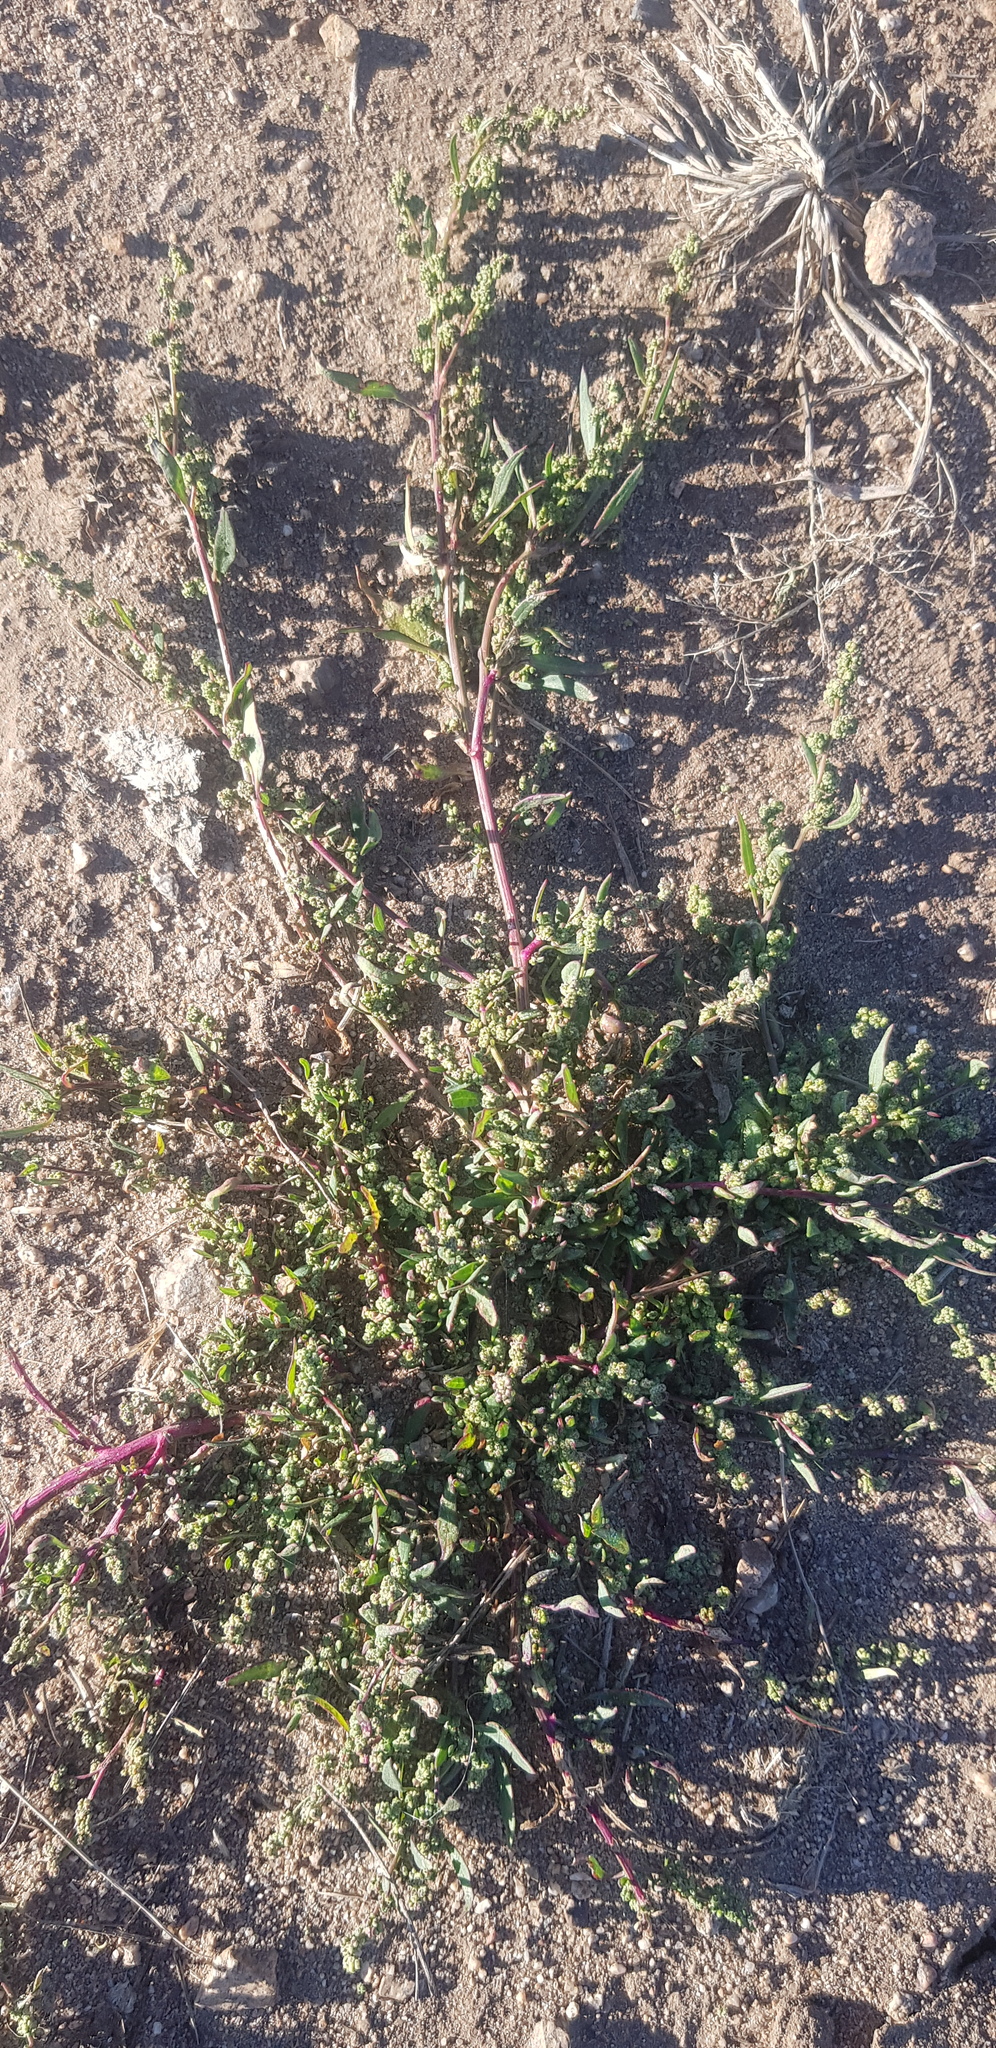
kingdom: Plantae
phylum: Tracheophyta
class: Magnoliopsida
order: Caryophyllales
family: Amaranthaceae
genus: Chenopodium
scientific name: Chenopodium album
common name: Fat-hen
